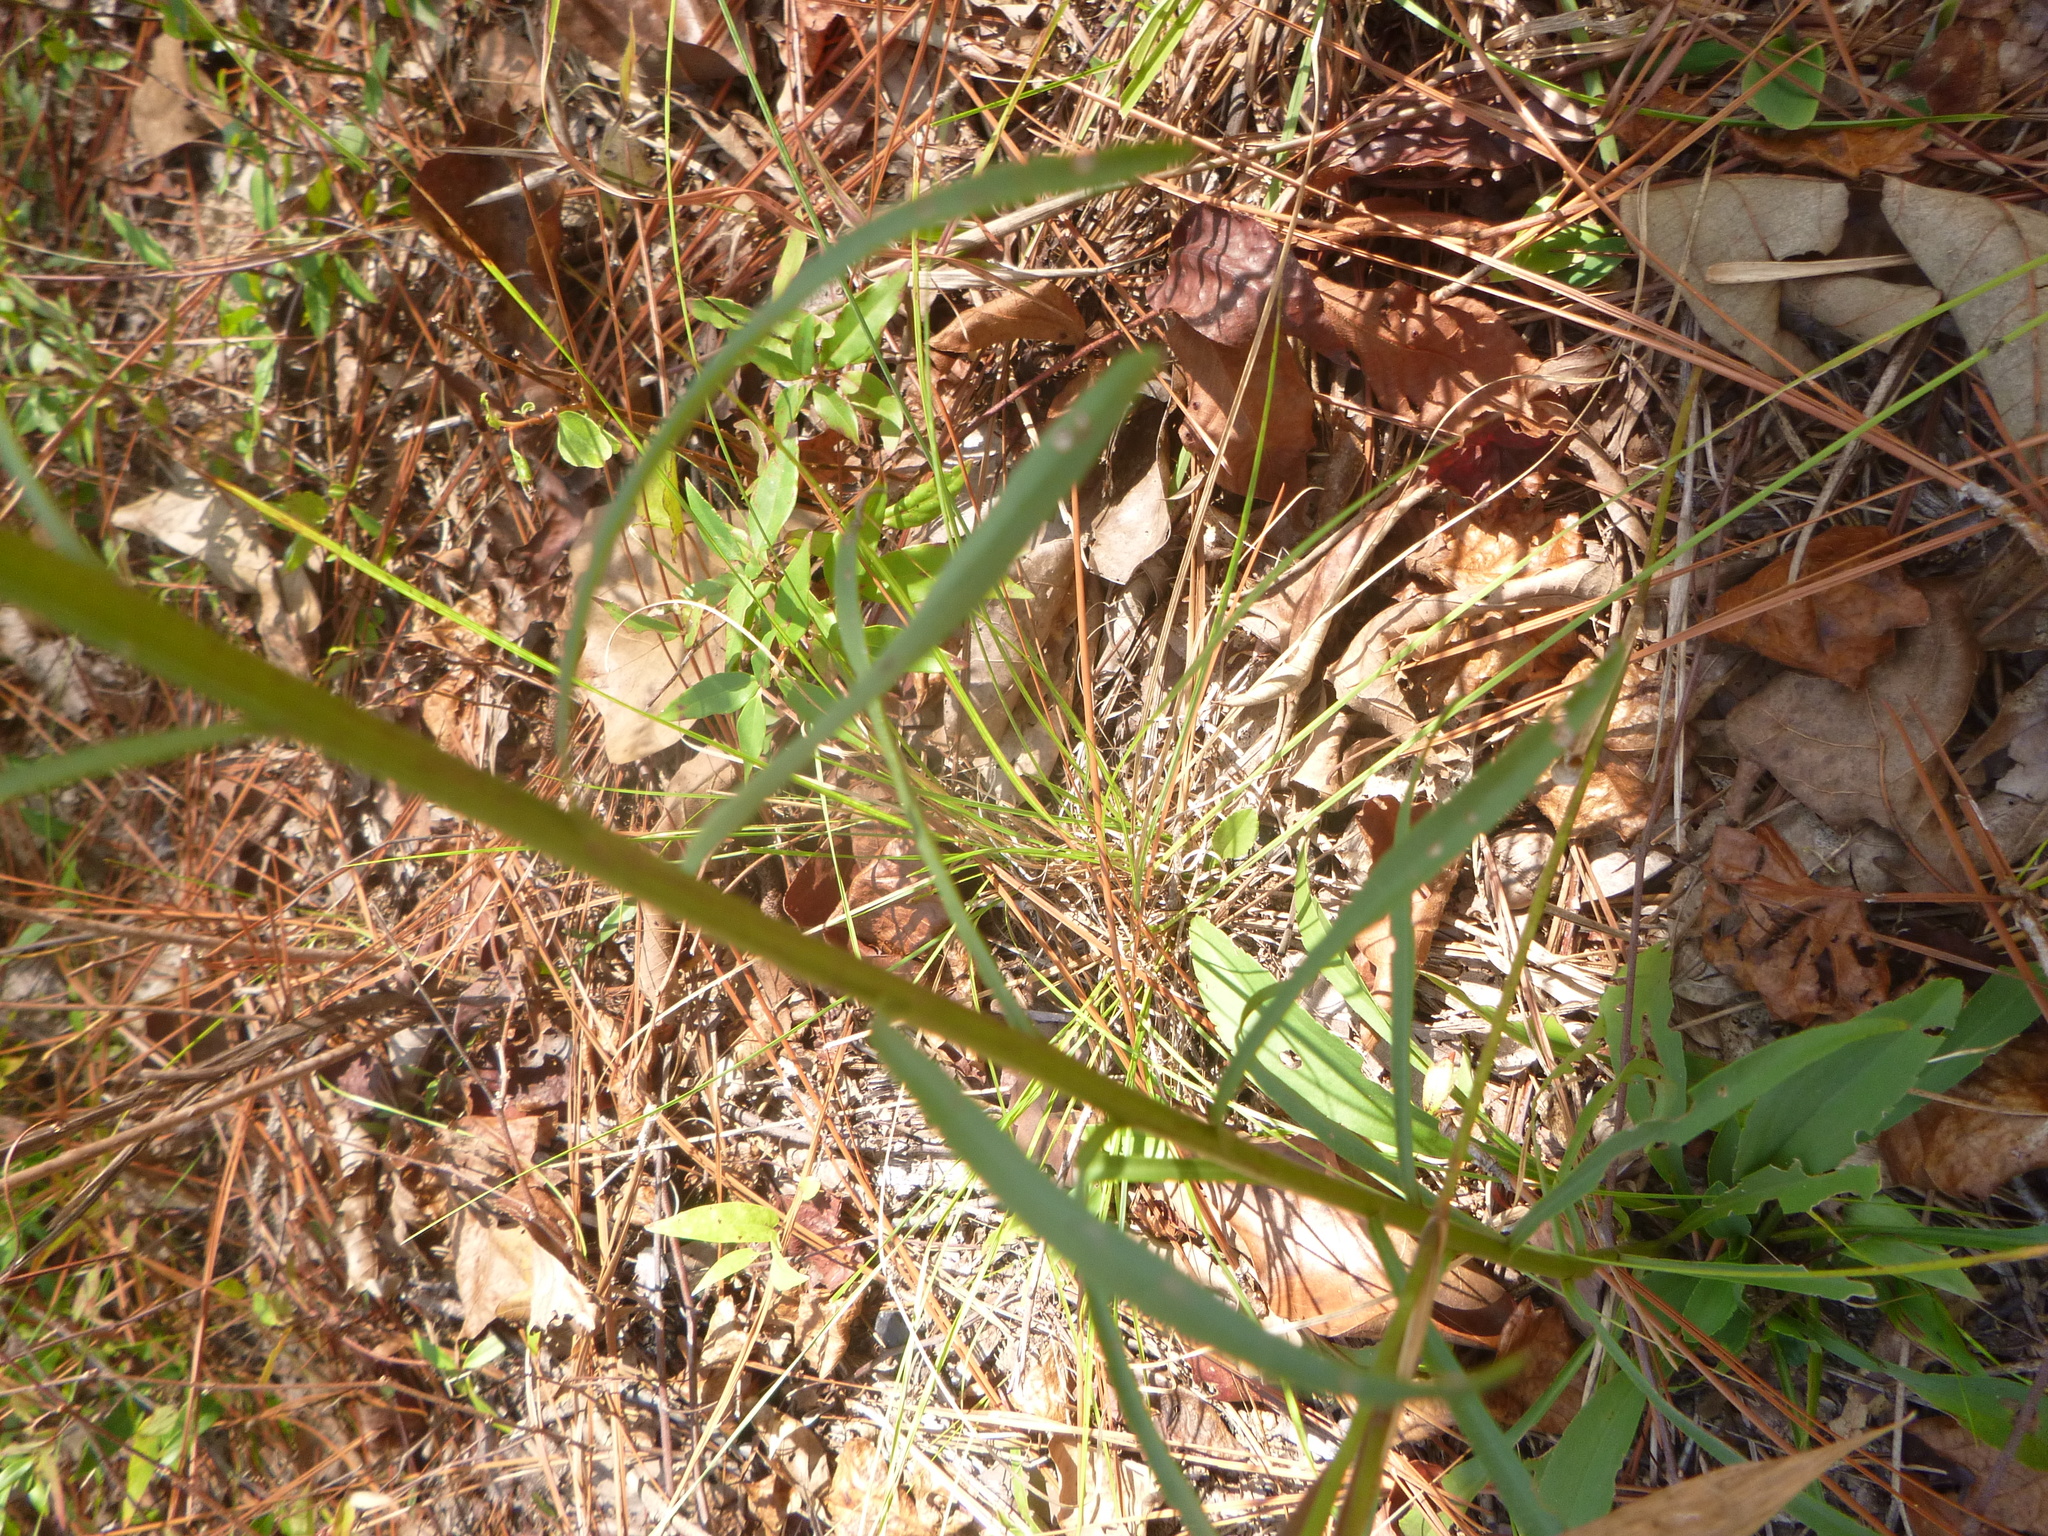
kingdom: Plantae
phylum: Tracheophyta
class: Magnoliopsida
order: Asterales
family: Asteraceae
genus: Solidago
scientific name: Solidago gracillima
